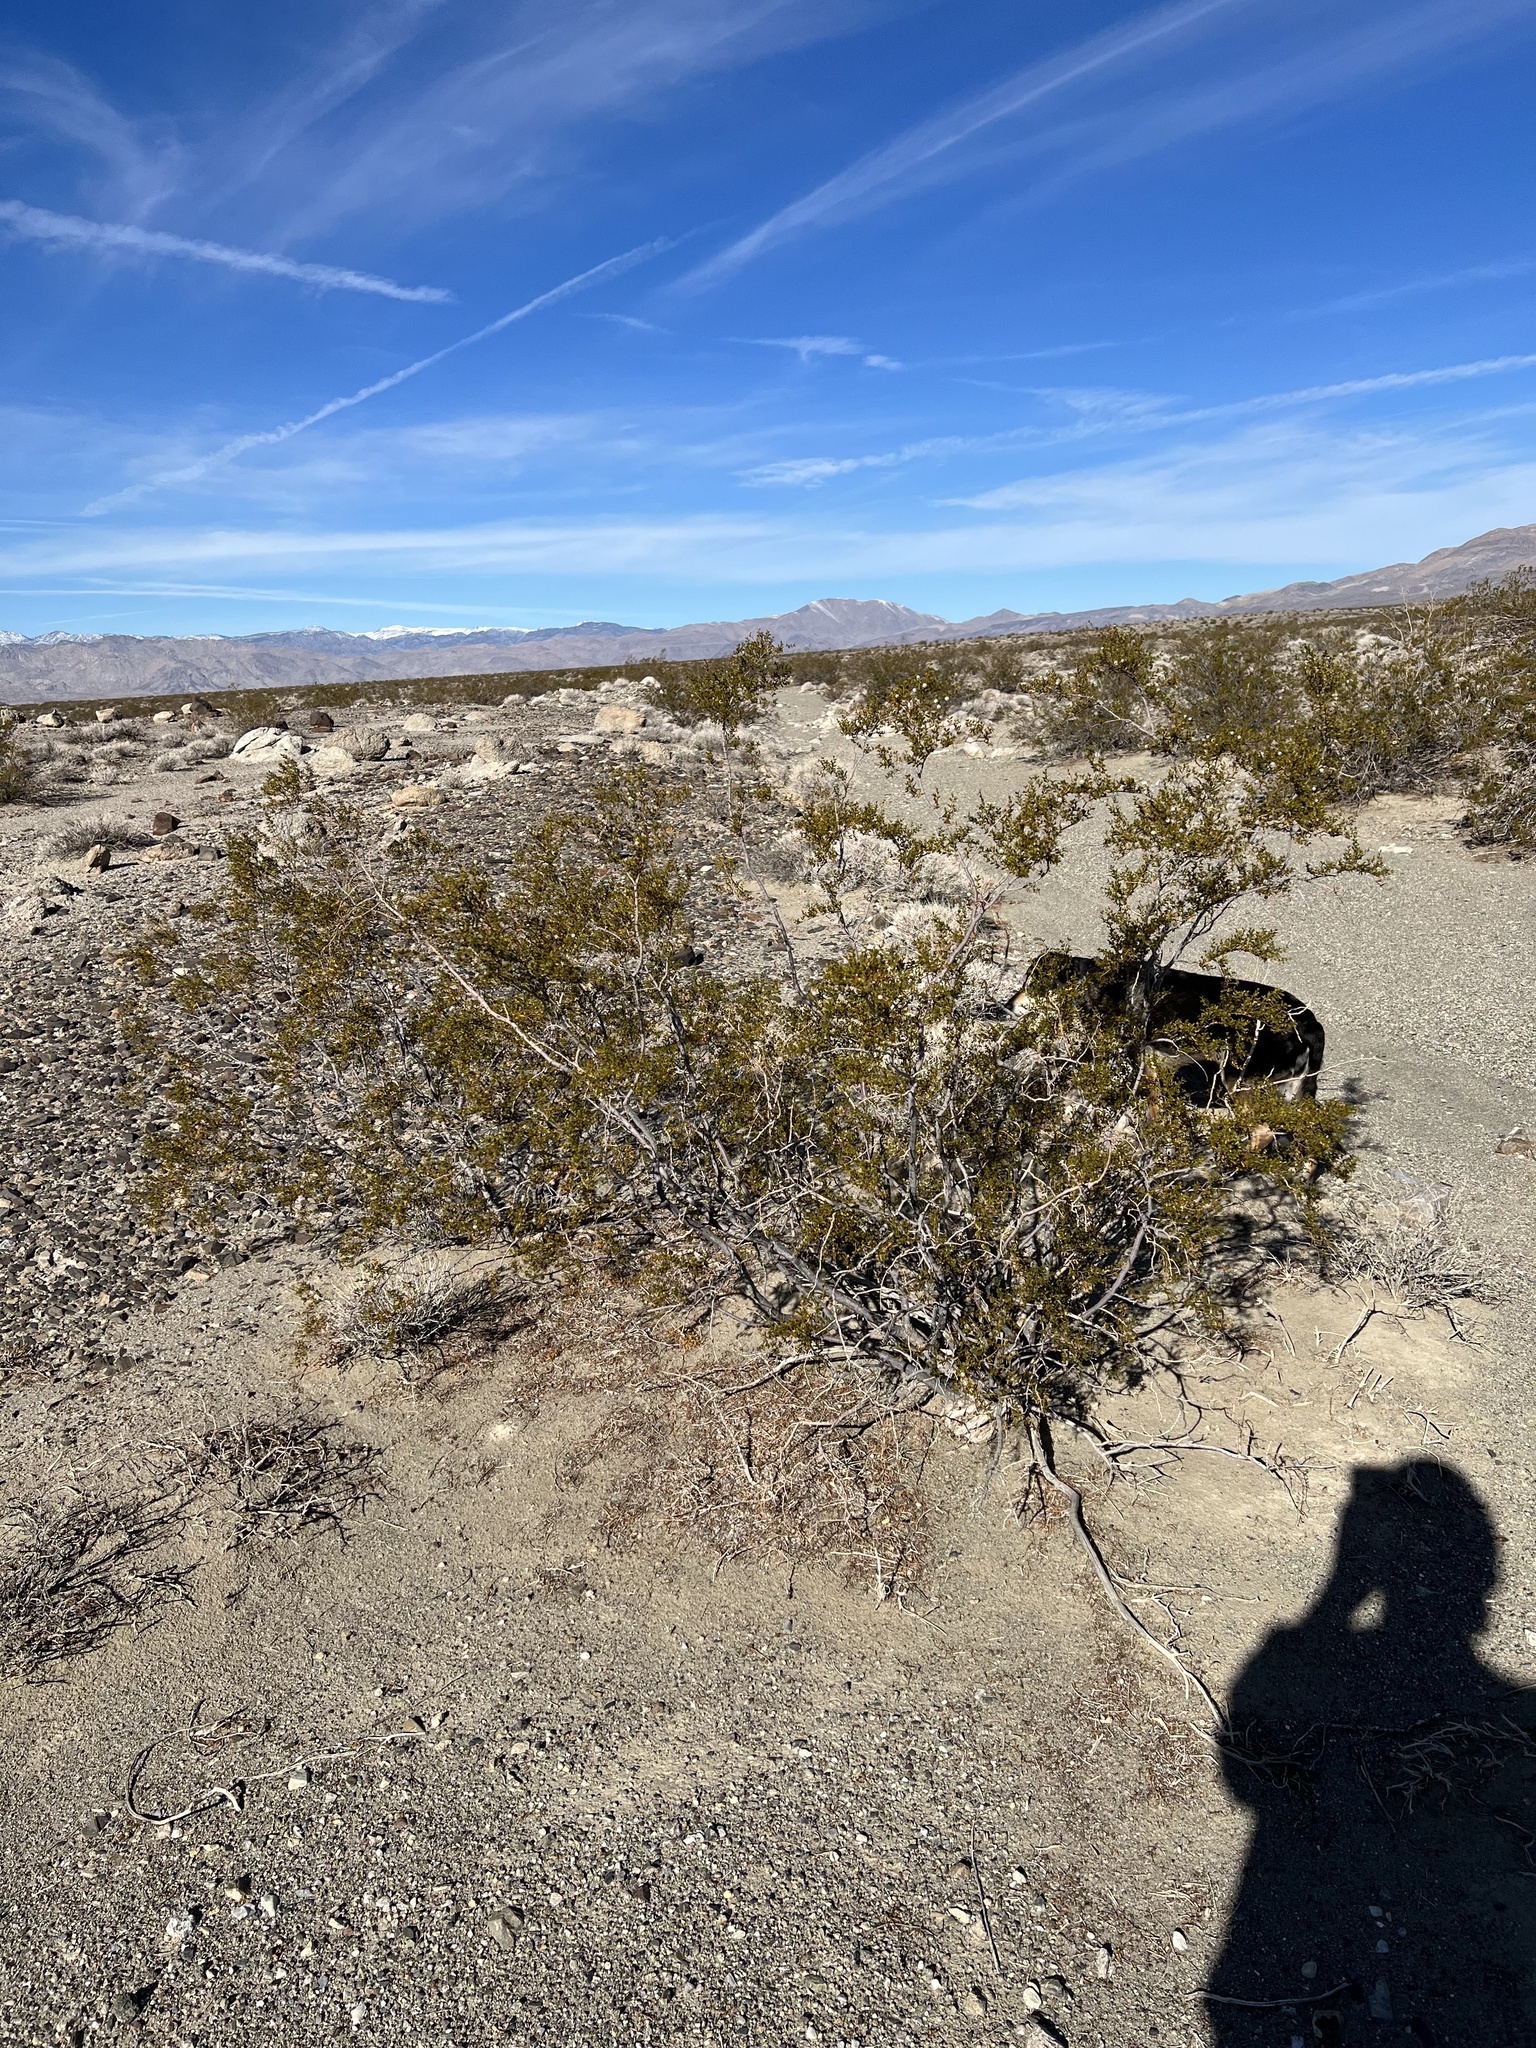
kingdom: Plantae
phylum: Tracheophyta
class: Magnoliopsida
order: Zygophyllales
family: Zygophyllaceae
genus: Larrea
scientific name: Larrea tridentata
